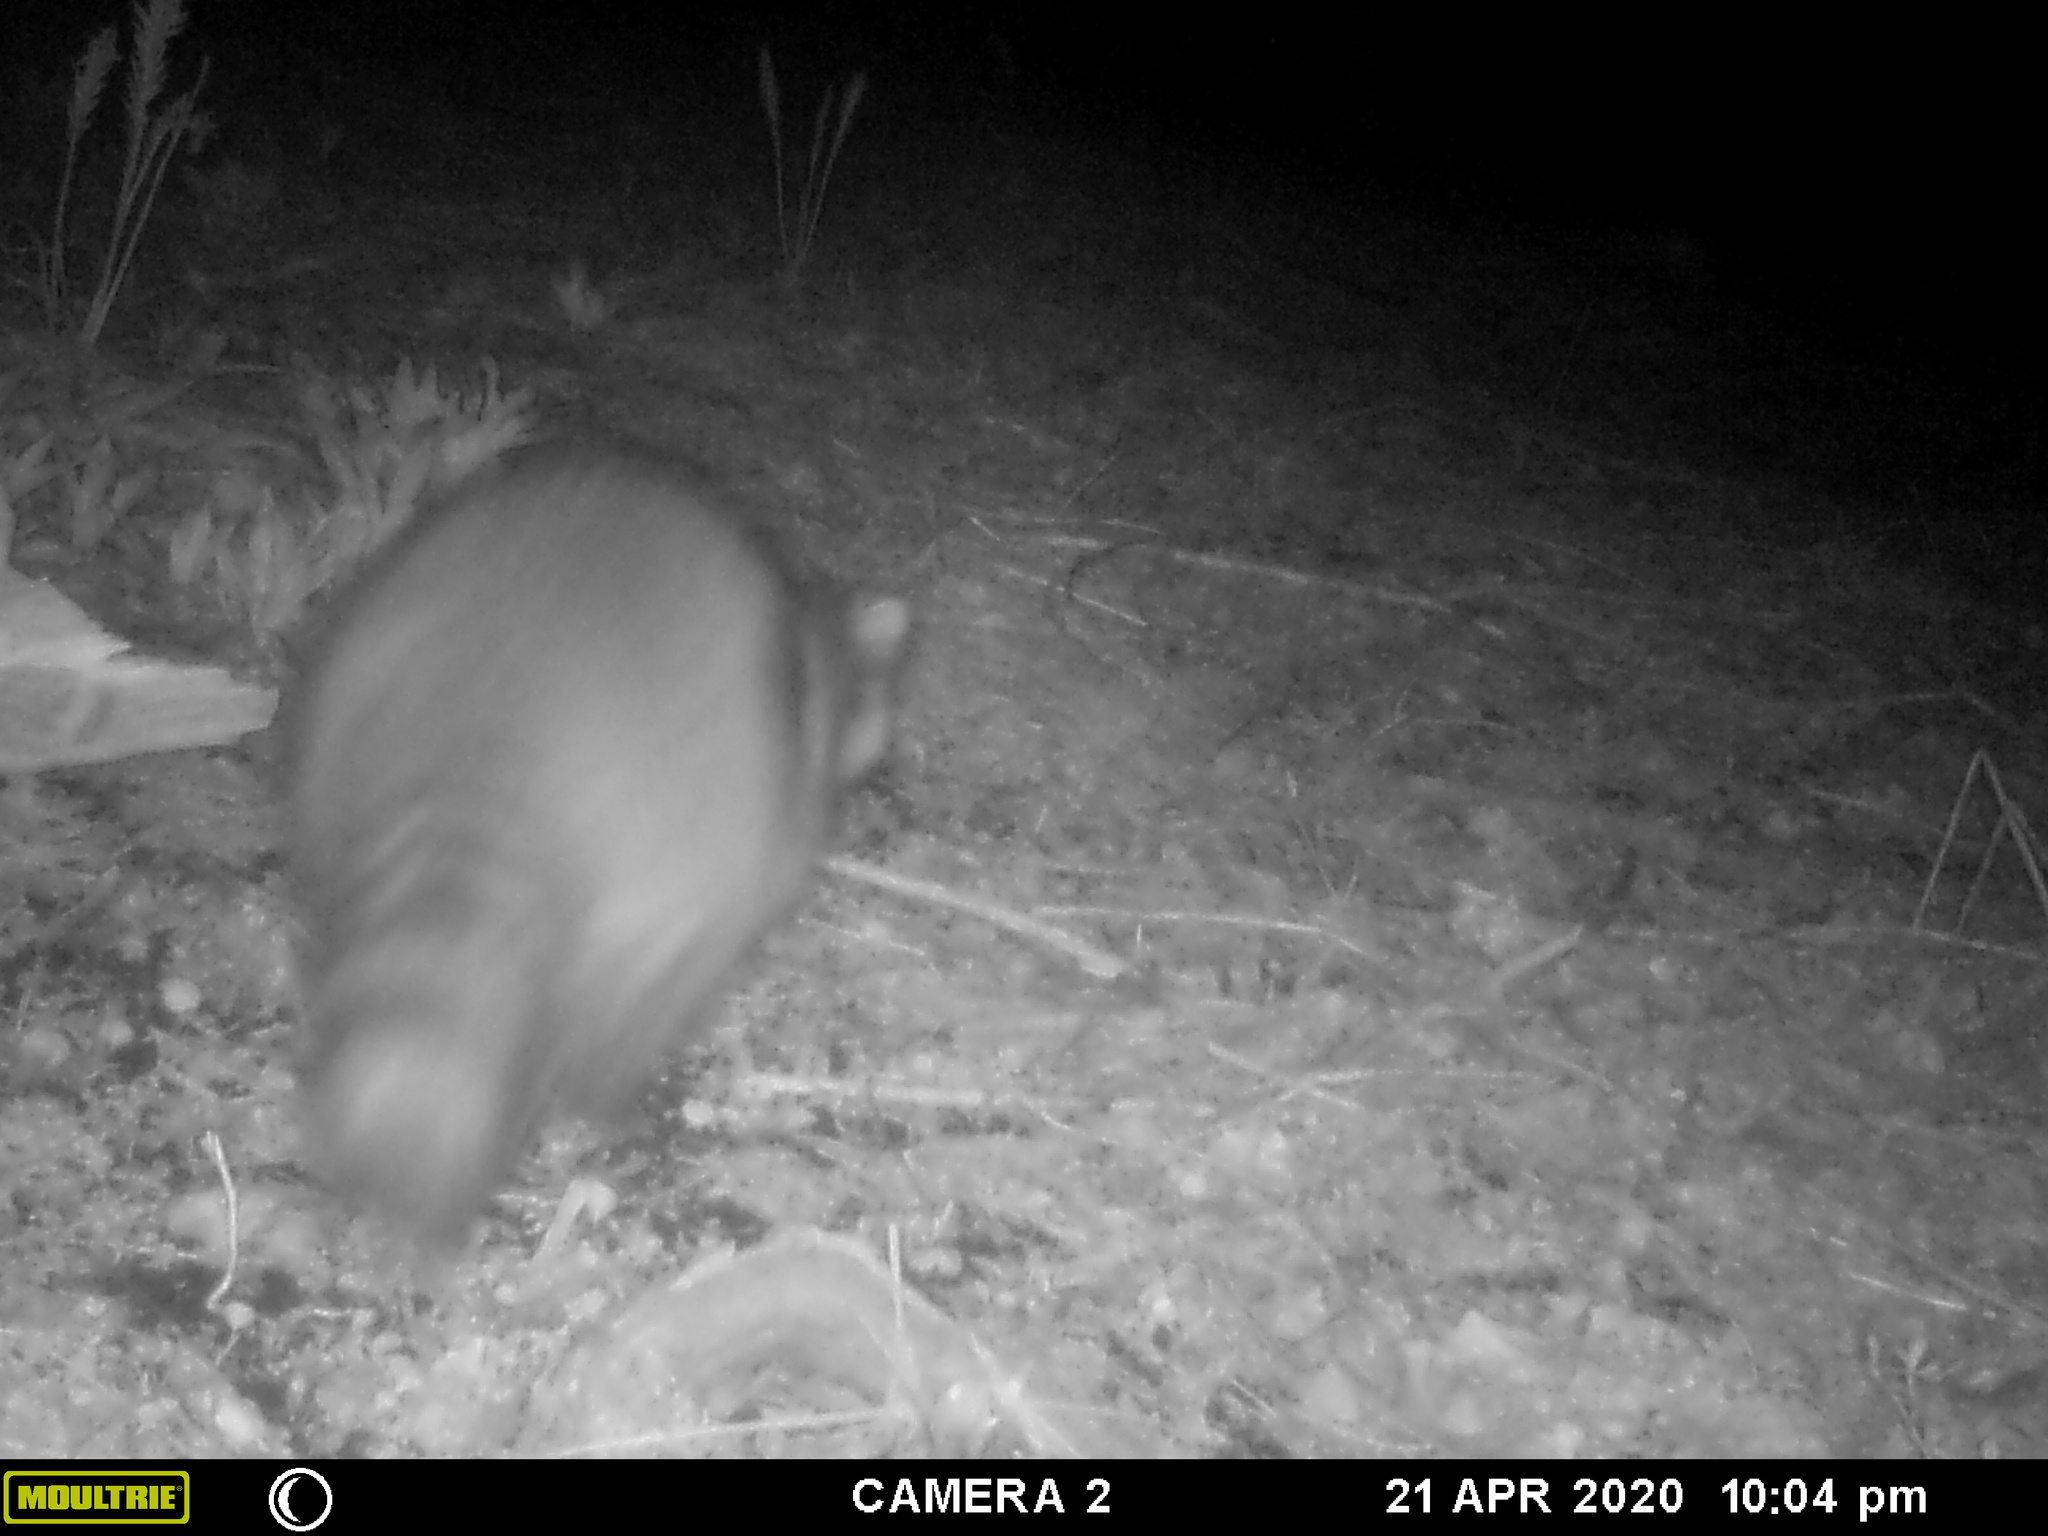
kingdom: Animalia
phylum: Chordata
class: Mammalia
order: Carnivora
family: Procyonidae
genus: Procyon
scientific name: Procyon lotor
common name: Raccoon
